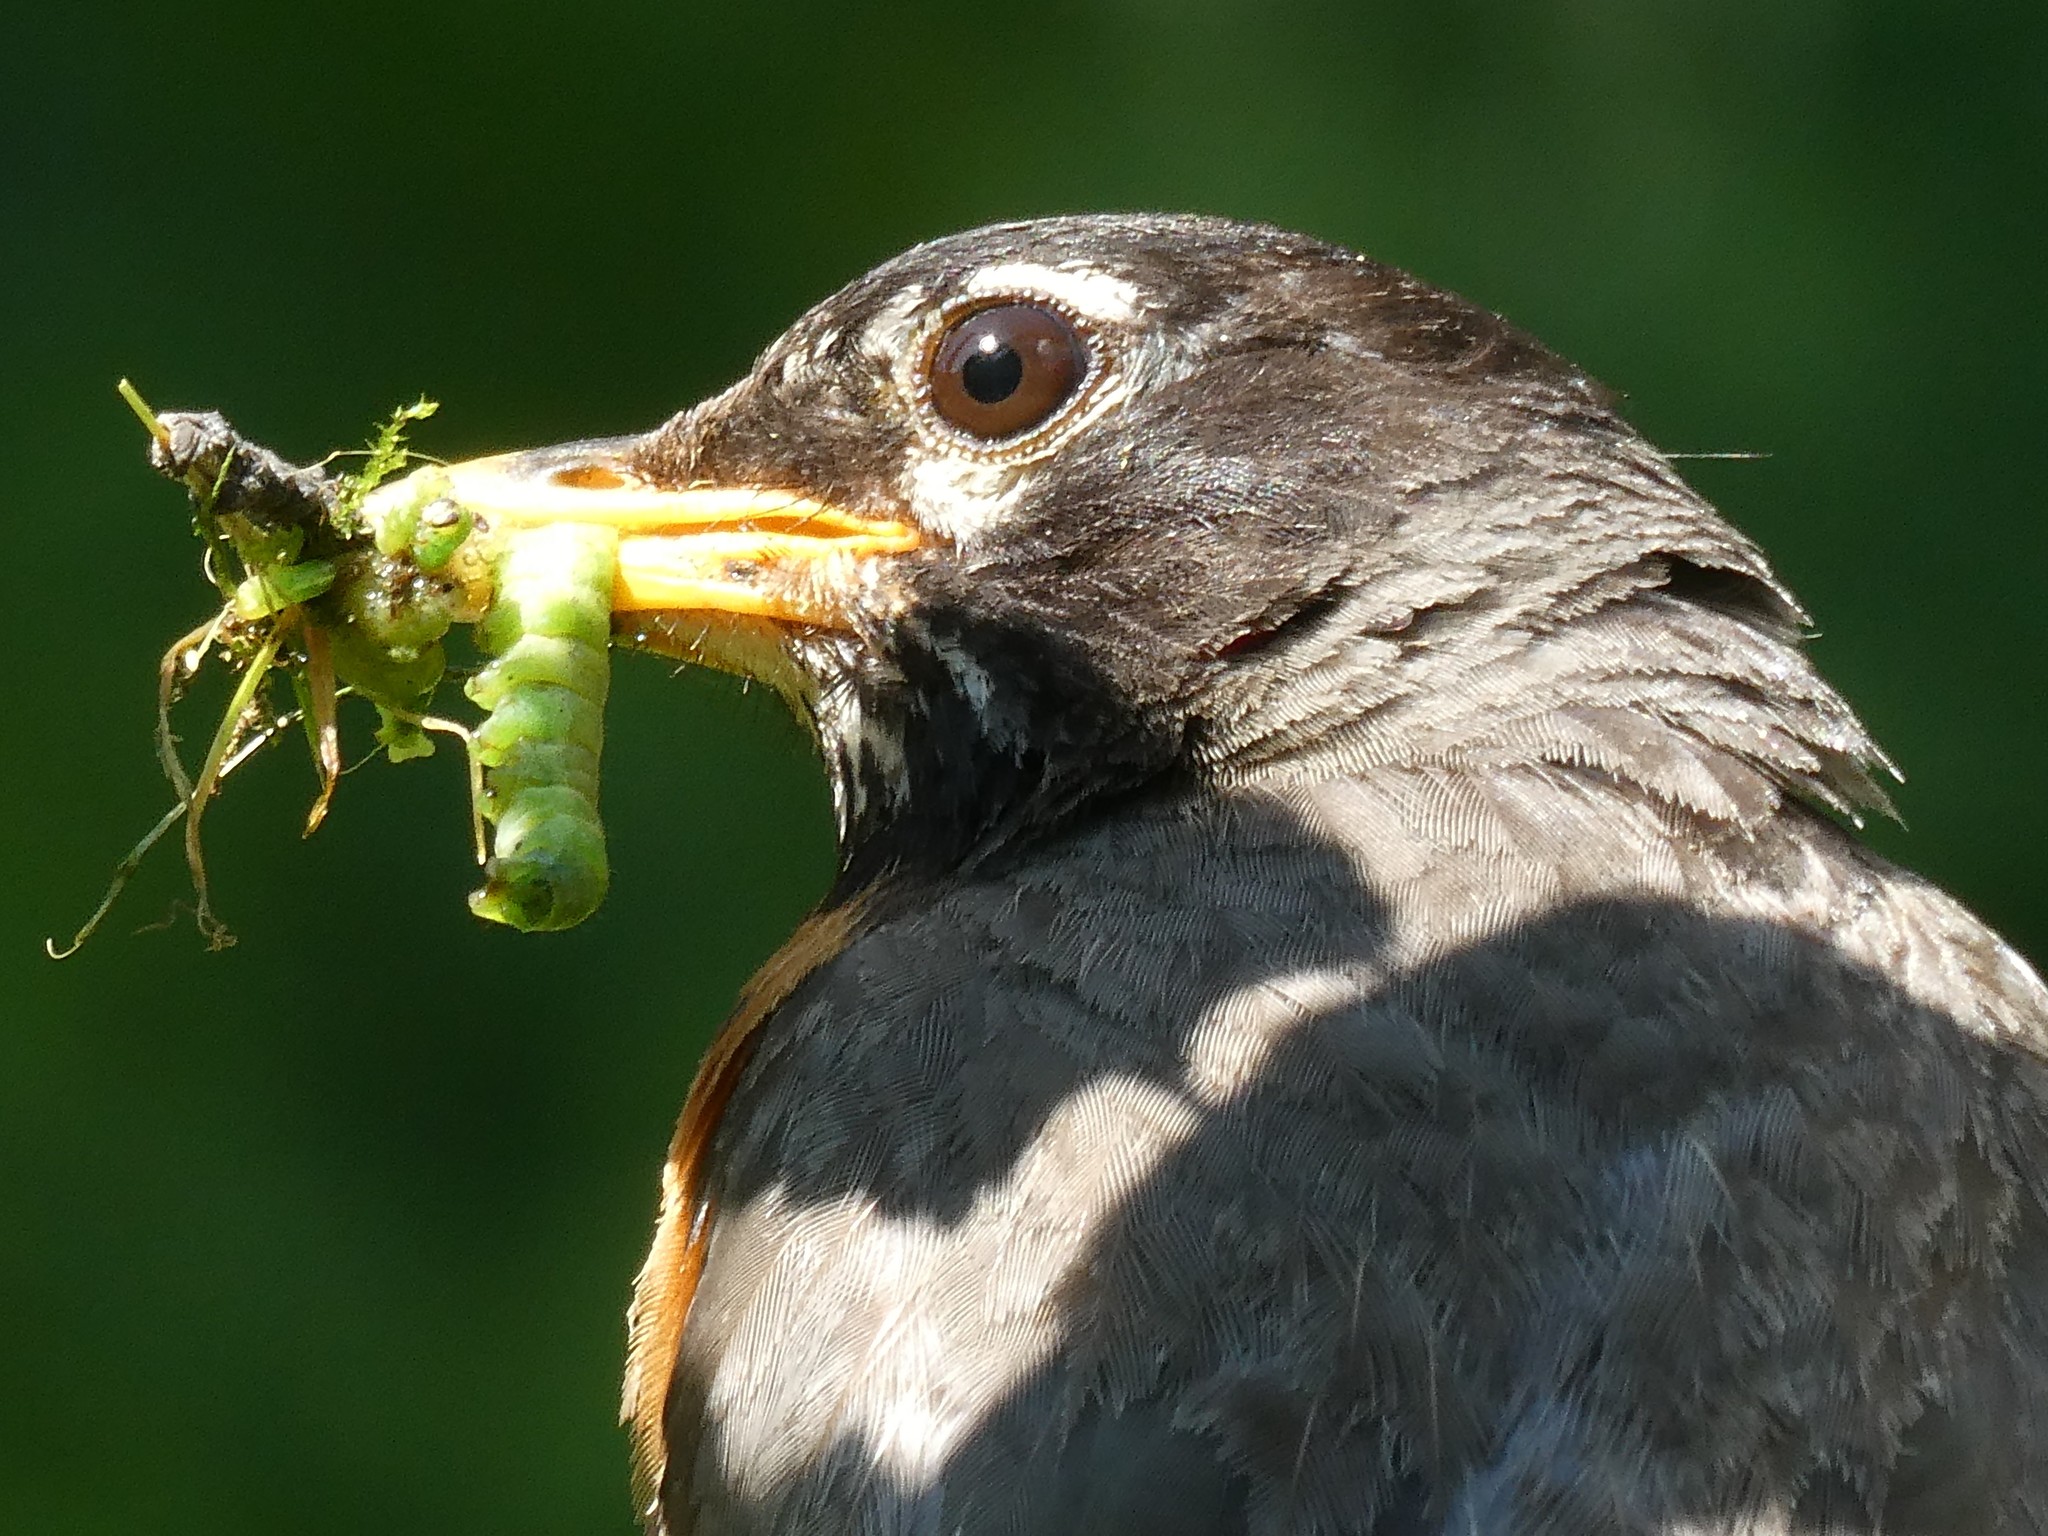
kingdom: Animalia
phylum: Chordata
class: Aves
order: Passeriformes
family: Turdidae
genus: Turdus
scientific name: Turdus migratorius
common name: American robin
